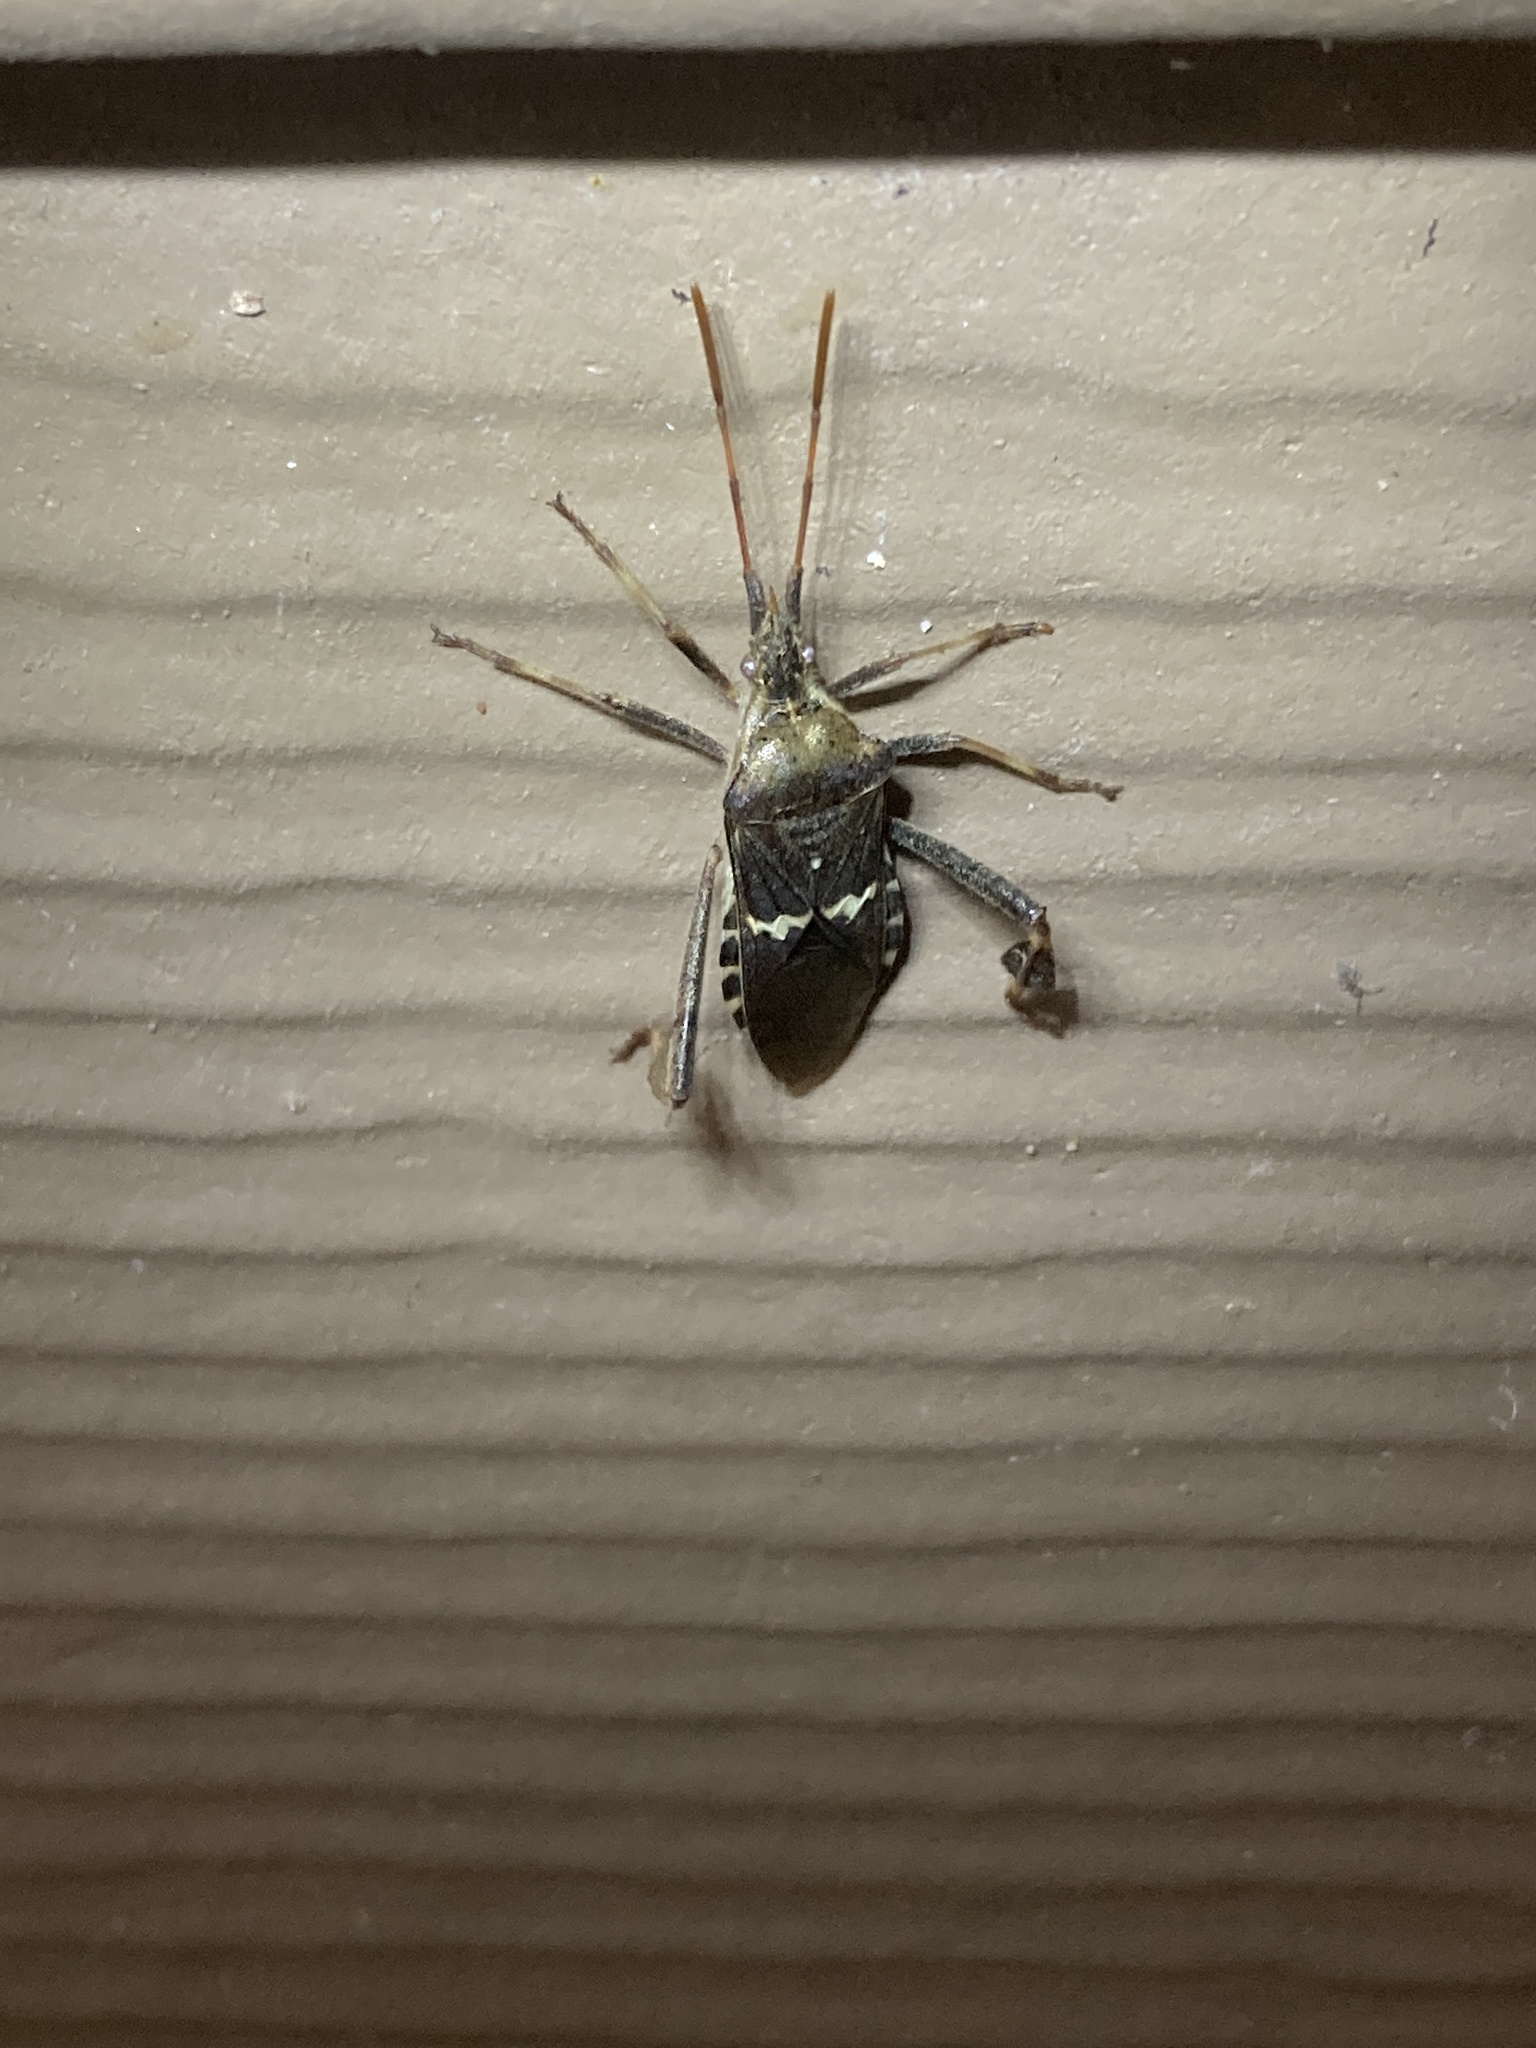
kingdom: Animalia
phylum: Arthropoda
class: Insecta
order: Hemiptera
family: Coreidae
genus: Leptoglossus
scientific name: Leptoglossus clypealis
